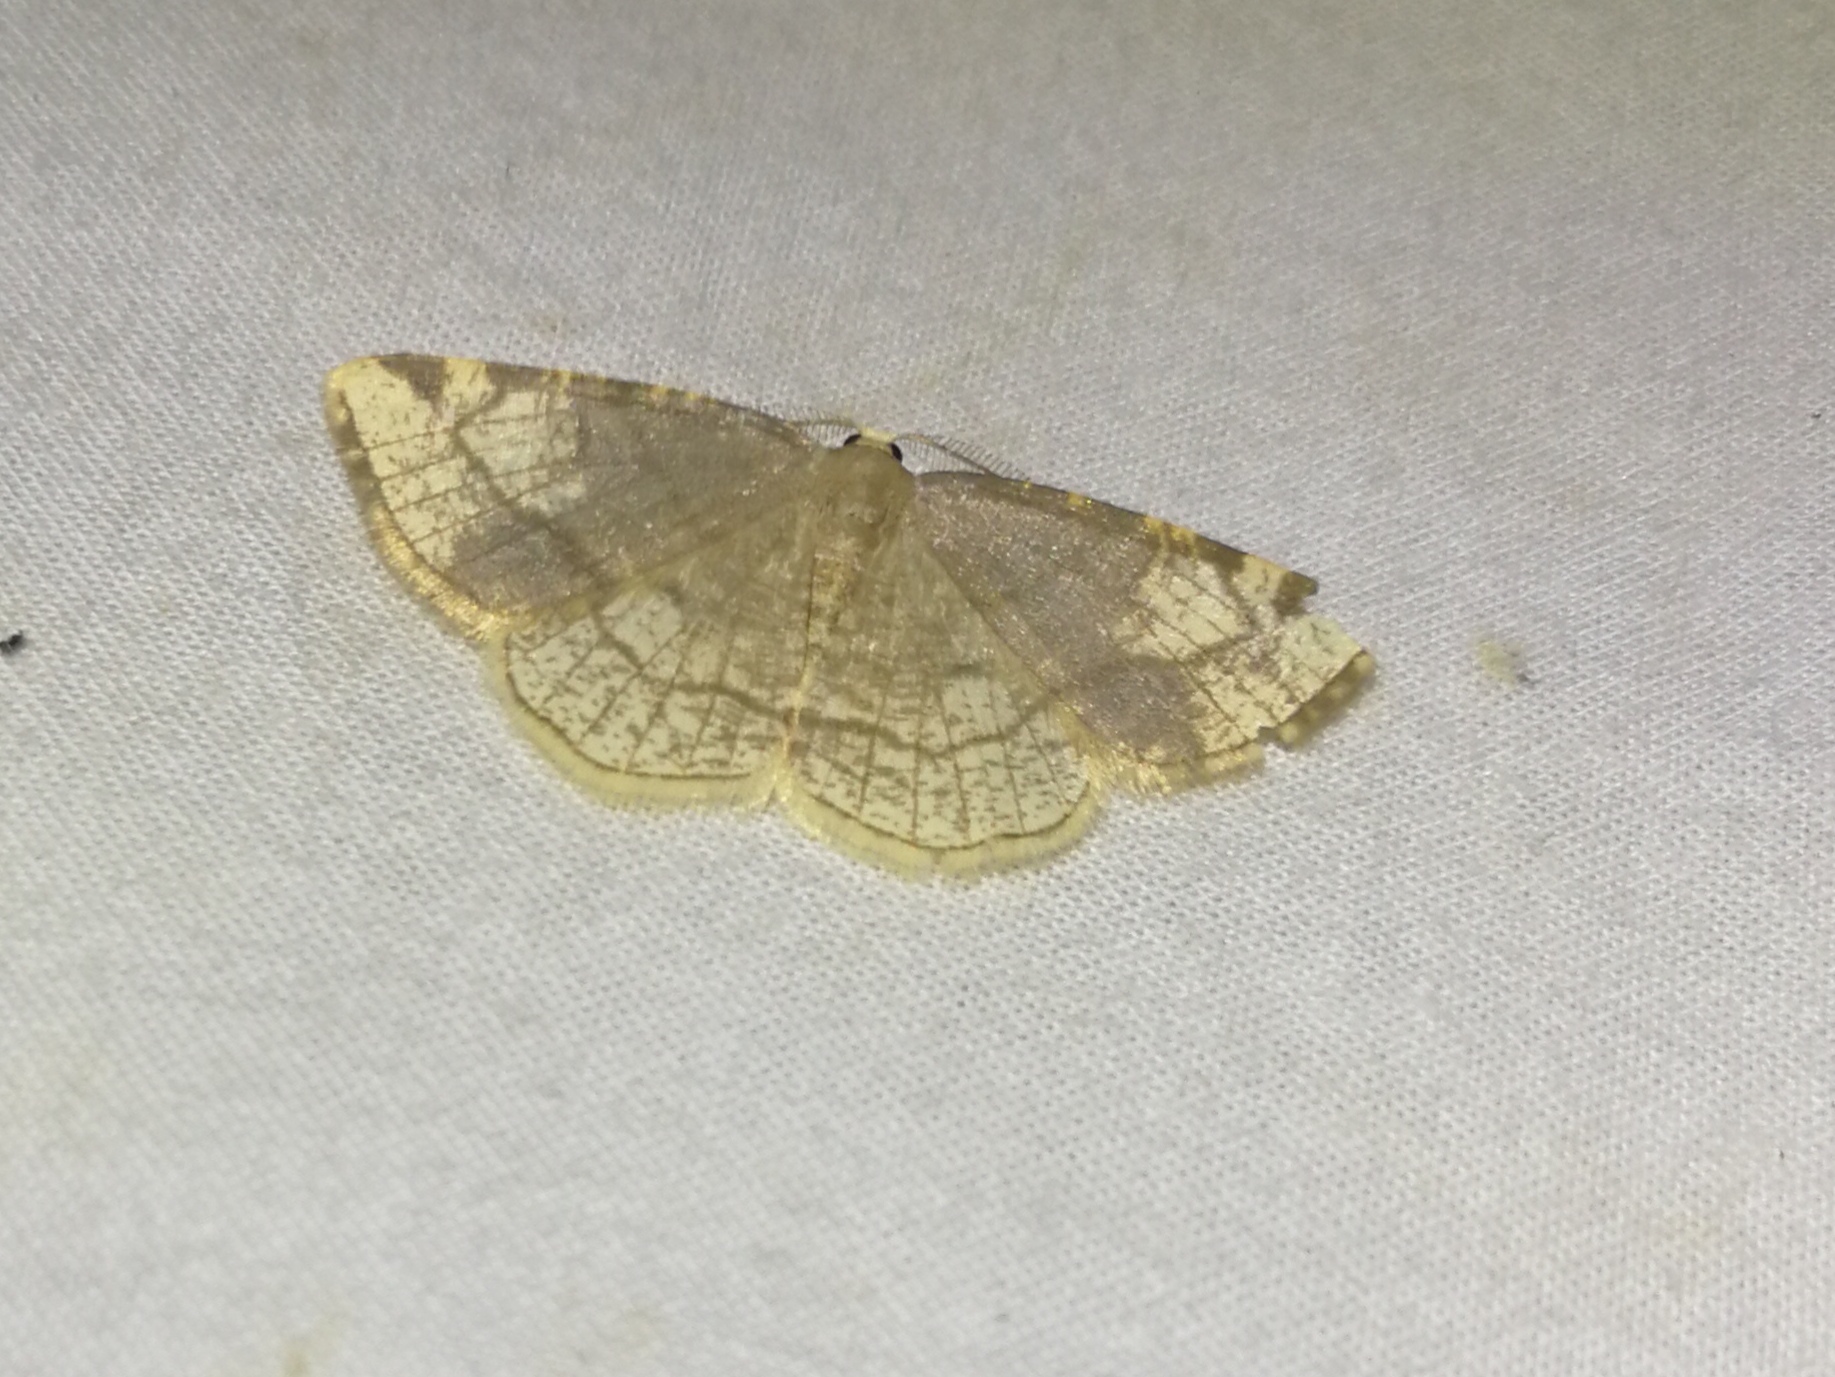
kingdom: Animalia
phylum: Arthropoda
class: Insecta
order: Lepidoptera
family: Geometridae
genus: Stegania
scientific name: Stegania trimaculata
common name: Dorset cream wave
